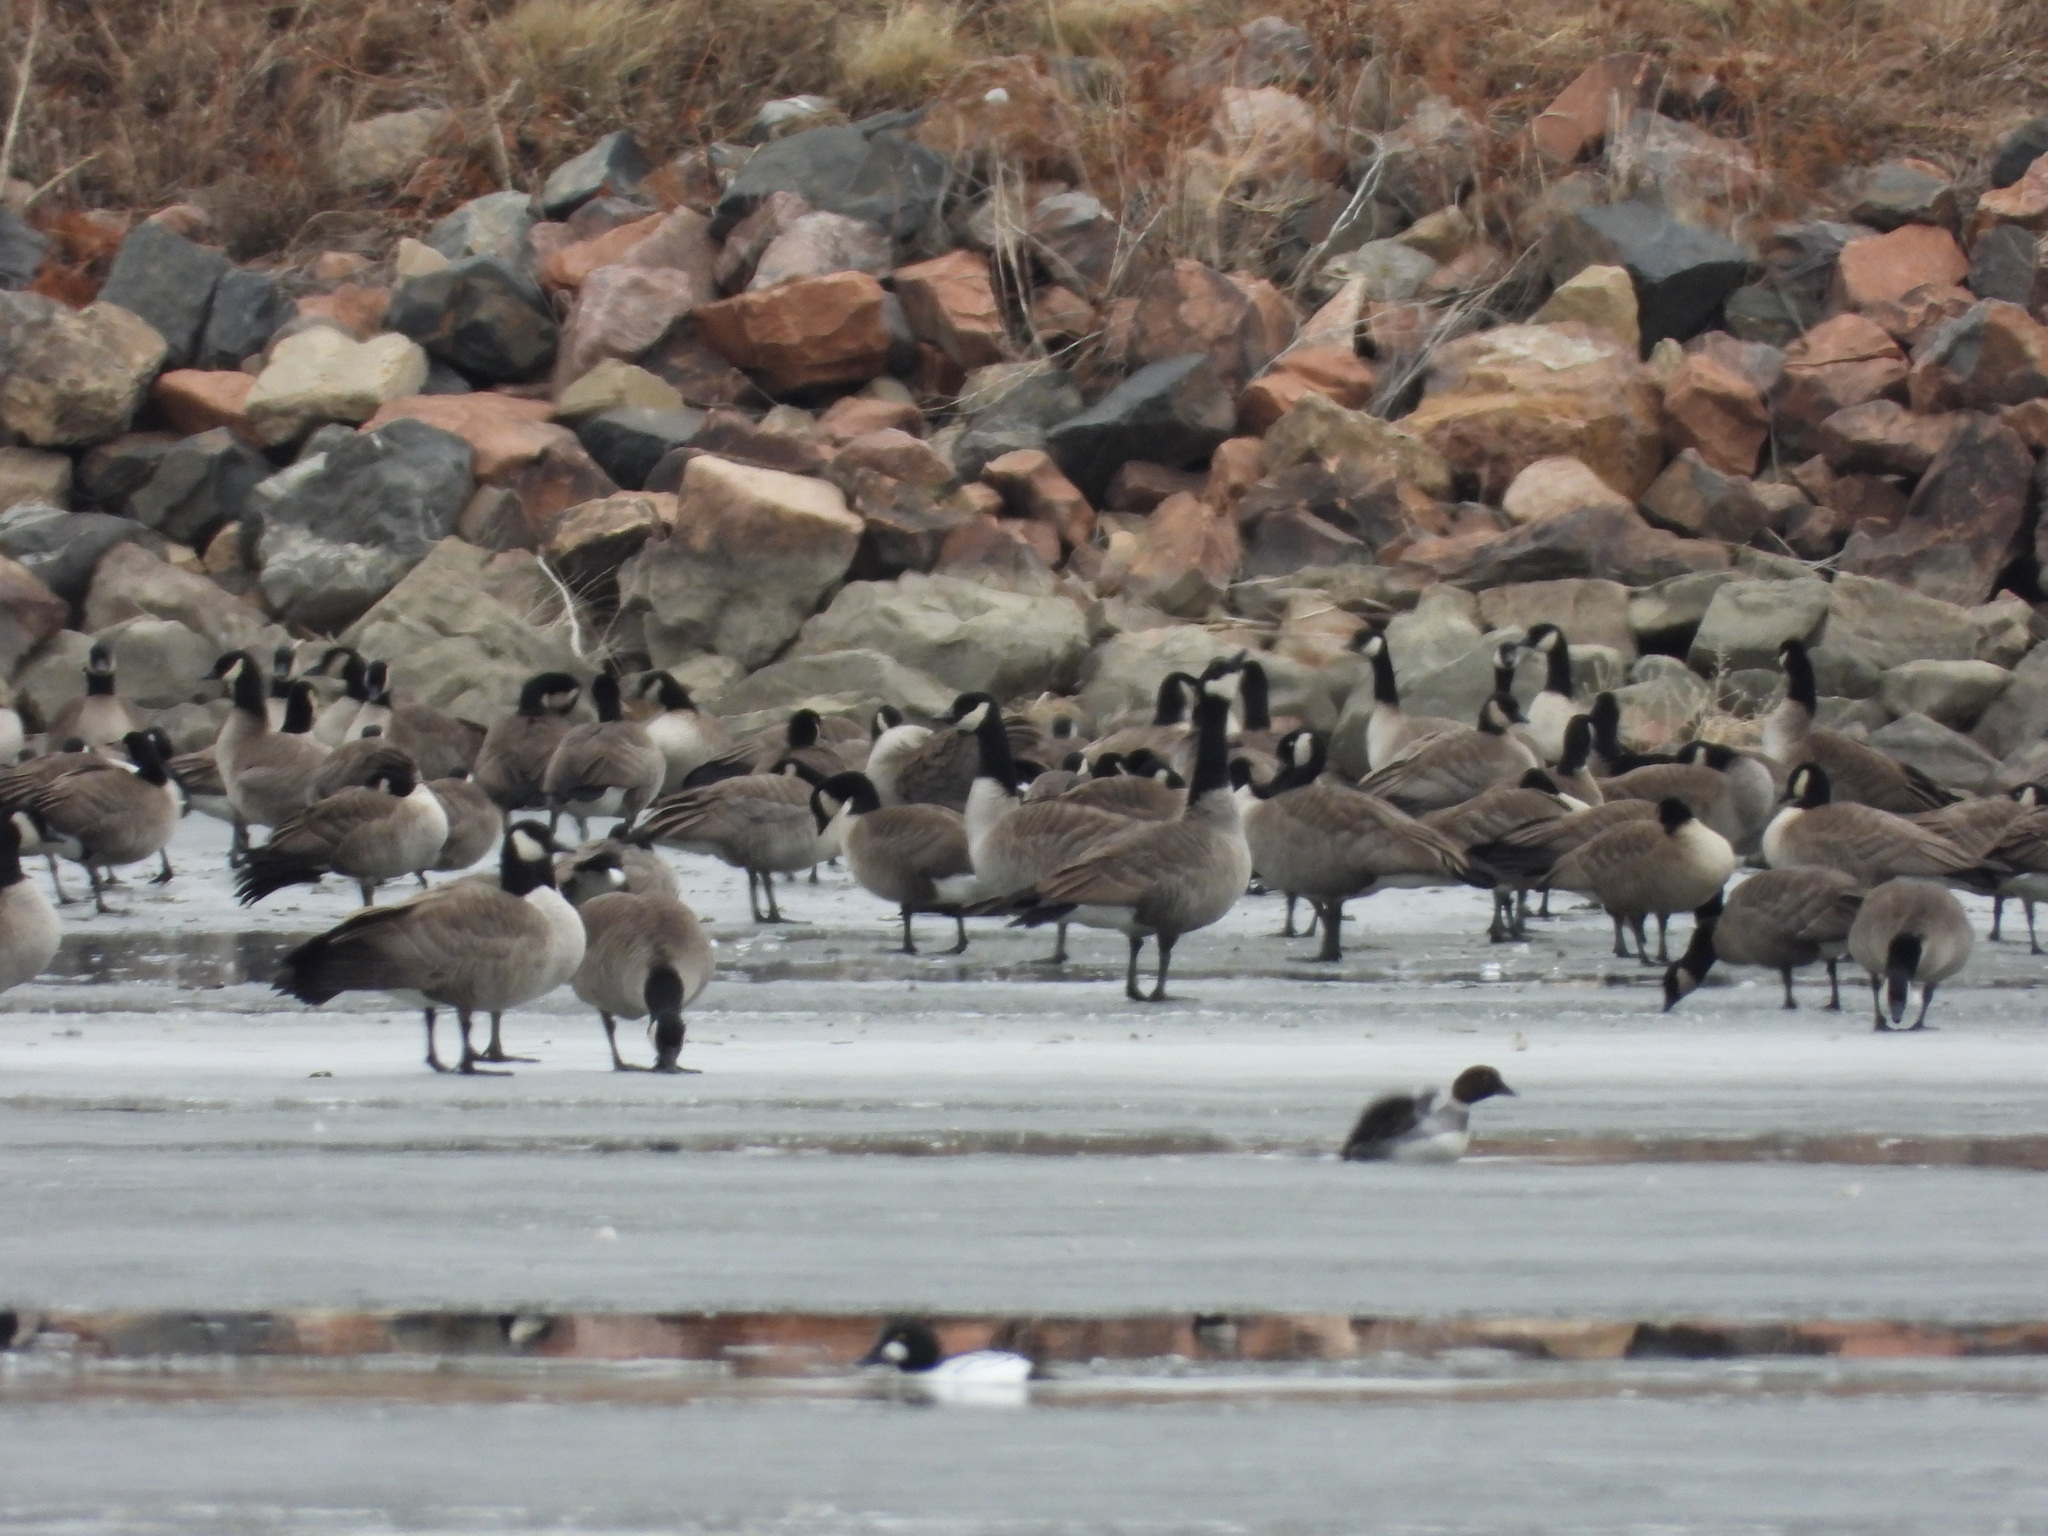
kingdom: Animalia
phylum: Chordata
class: Aves
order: Anseriformes
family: Anatidae
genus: Branta
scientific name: Branta canadensis
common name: Canada goose
